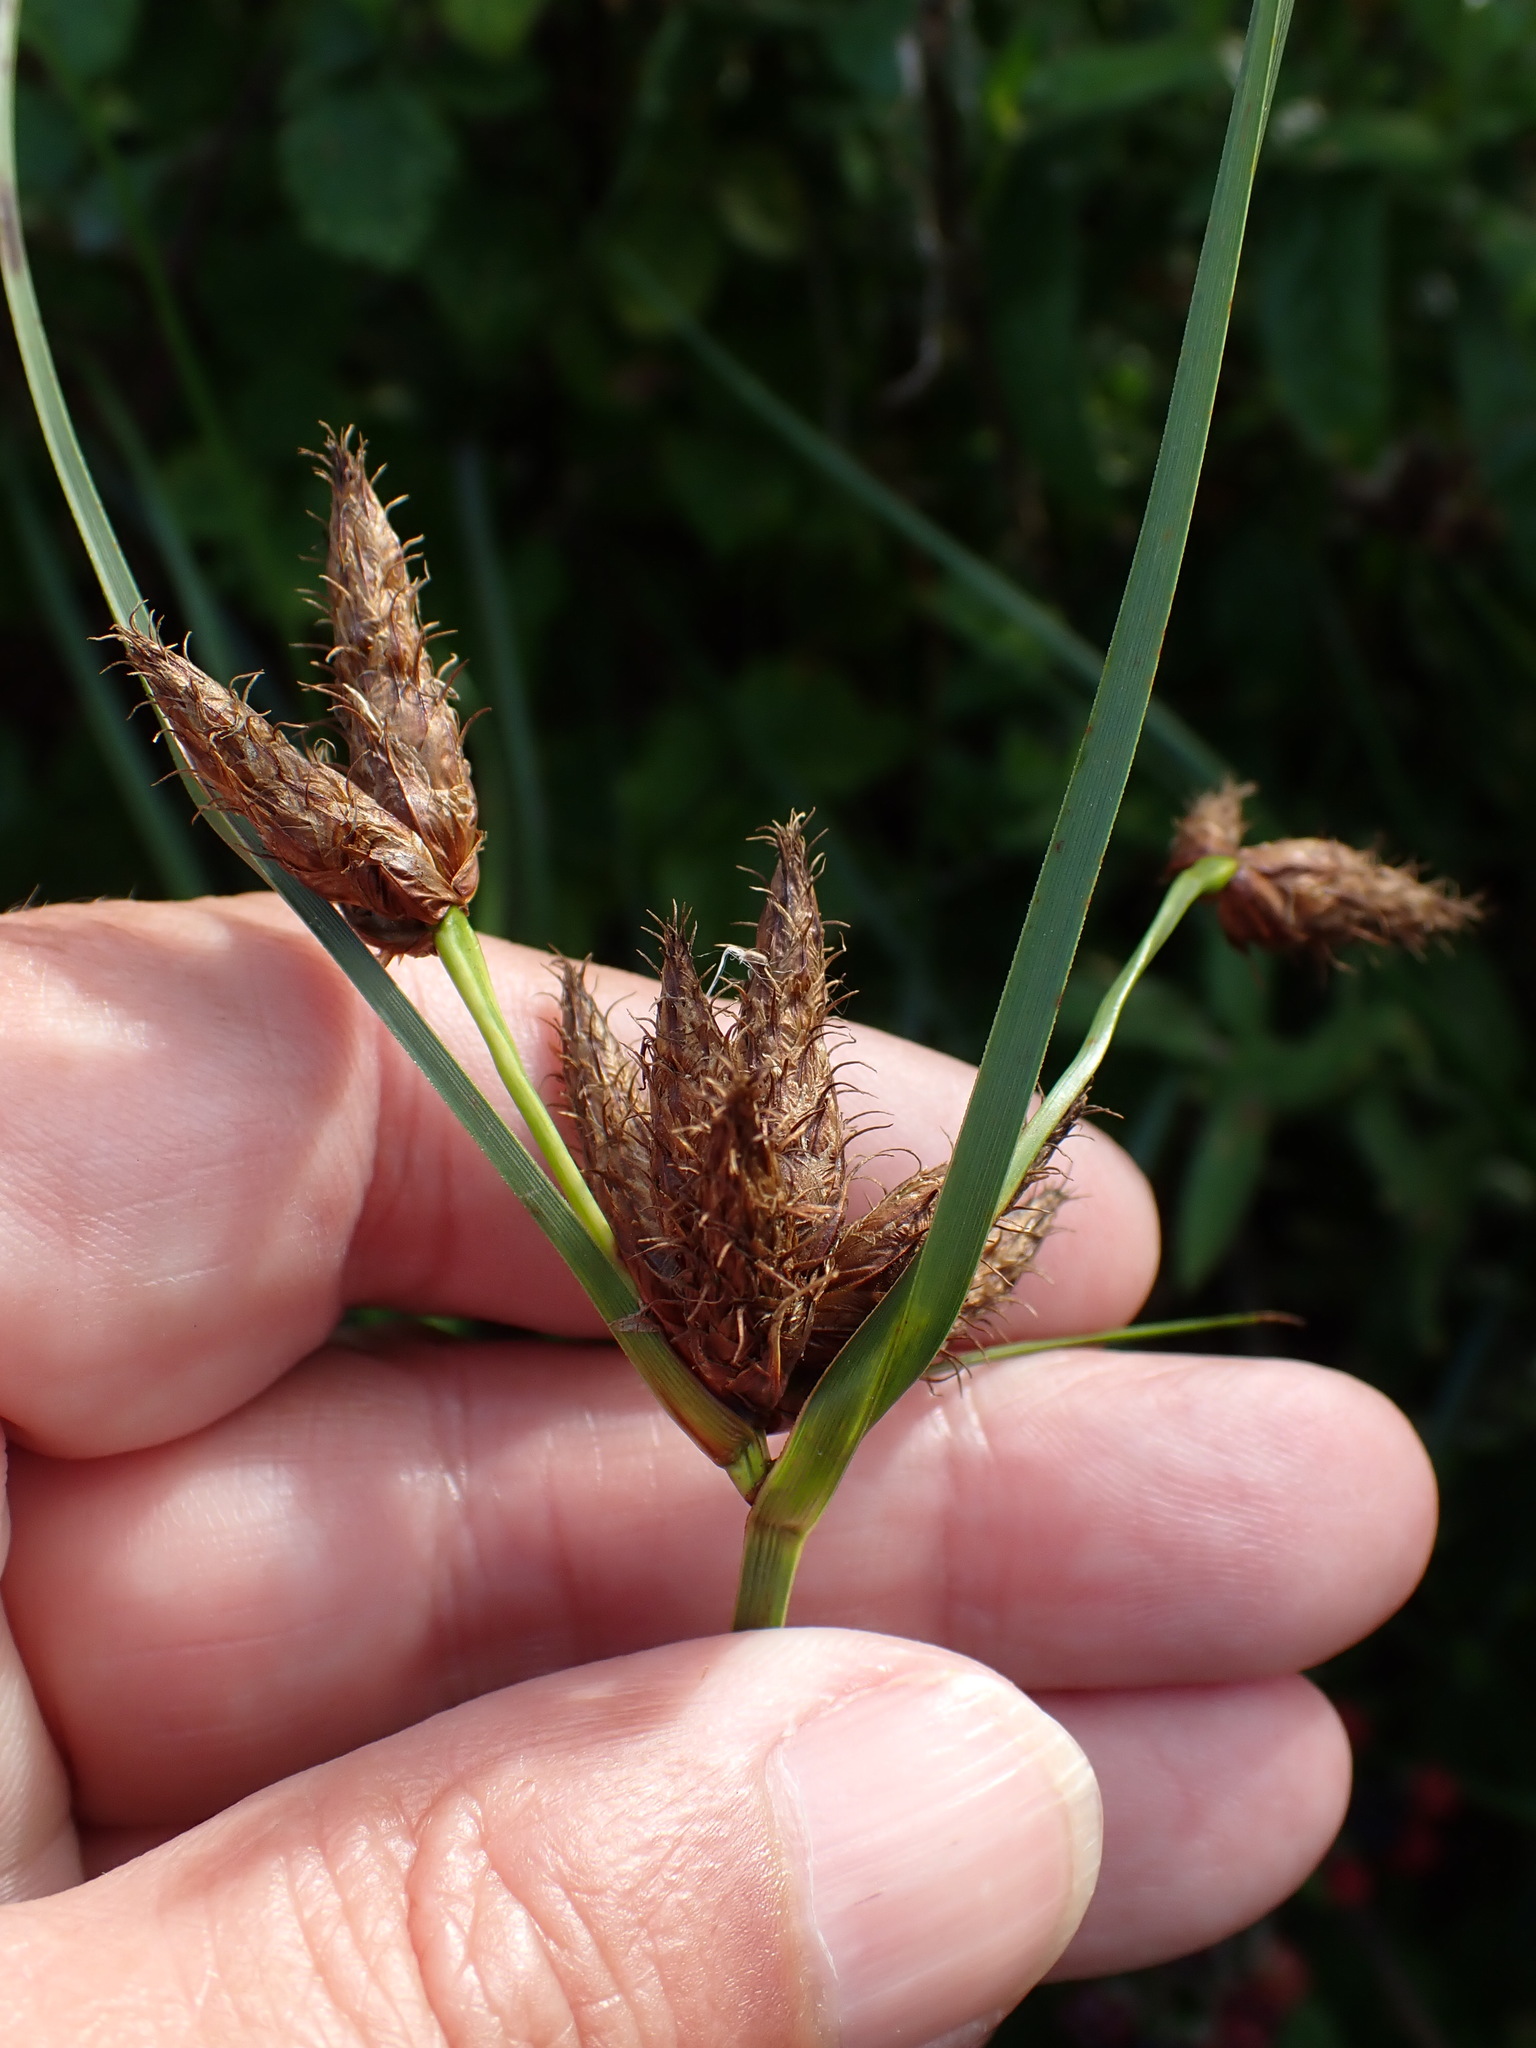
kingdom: Plantae
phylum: Tracheophyta
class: Liliopsida
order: Poales
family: Cyperaceae
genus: Bolboschoenus
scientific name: Bolboschoenus maritimus
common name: Sea club-rush
